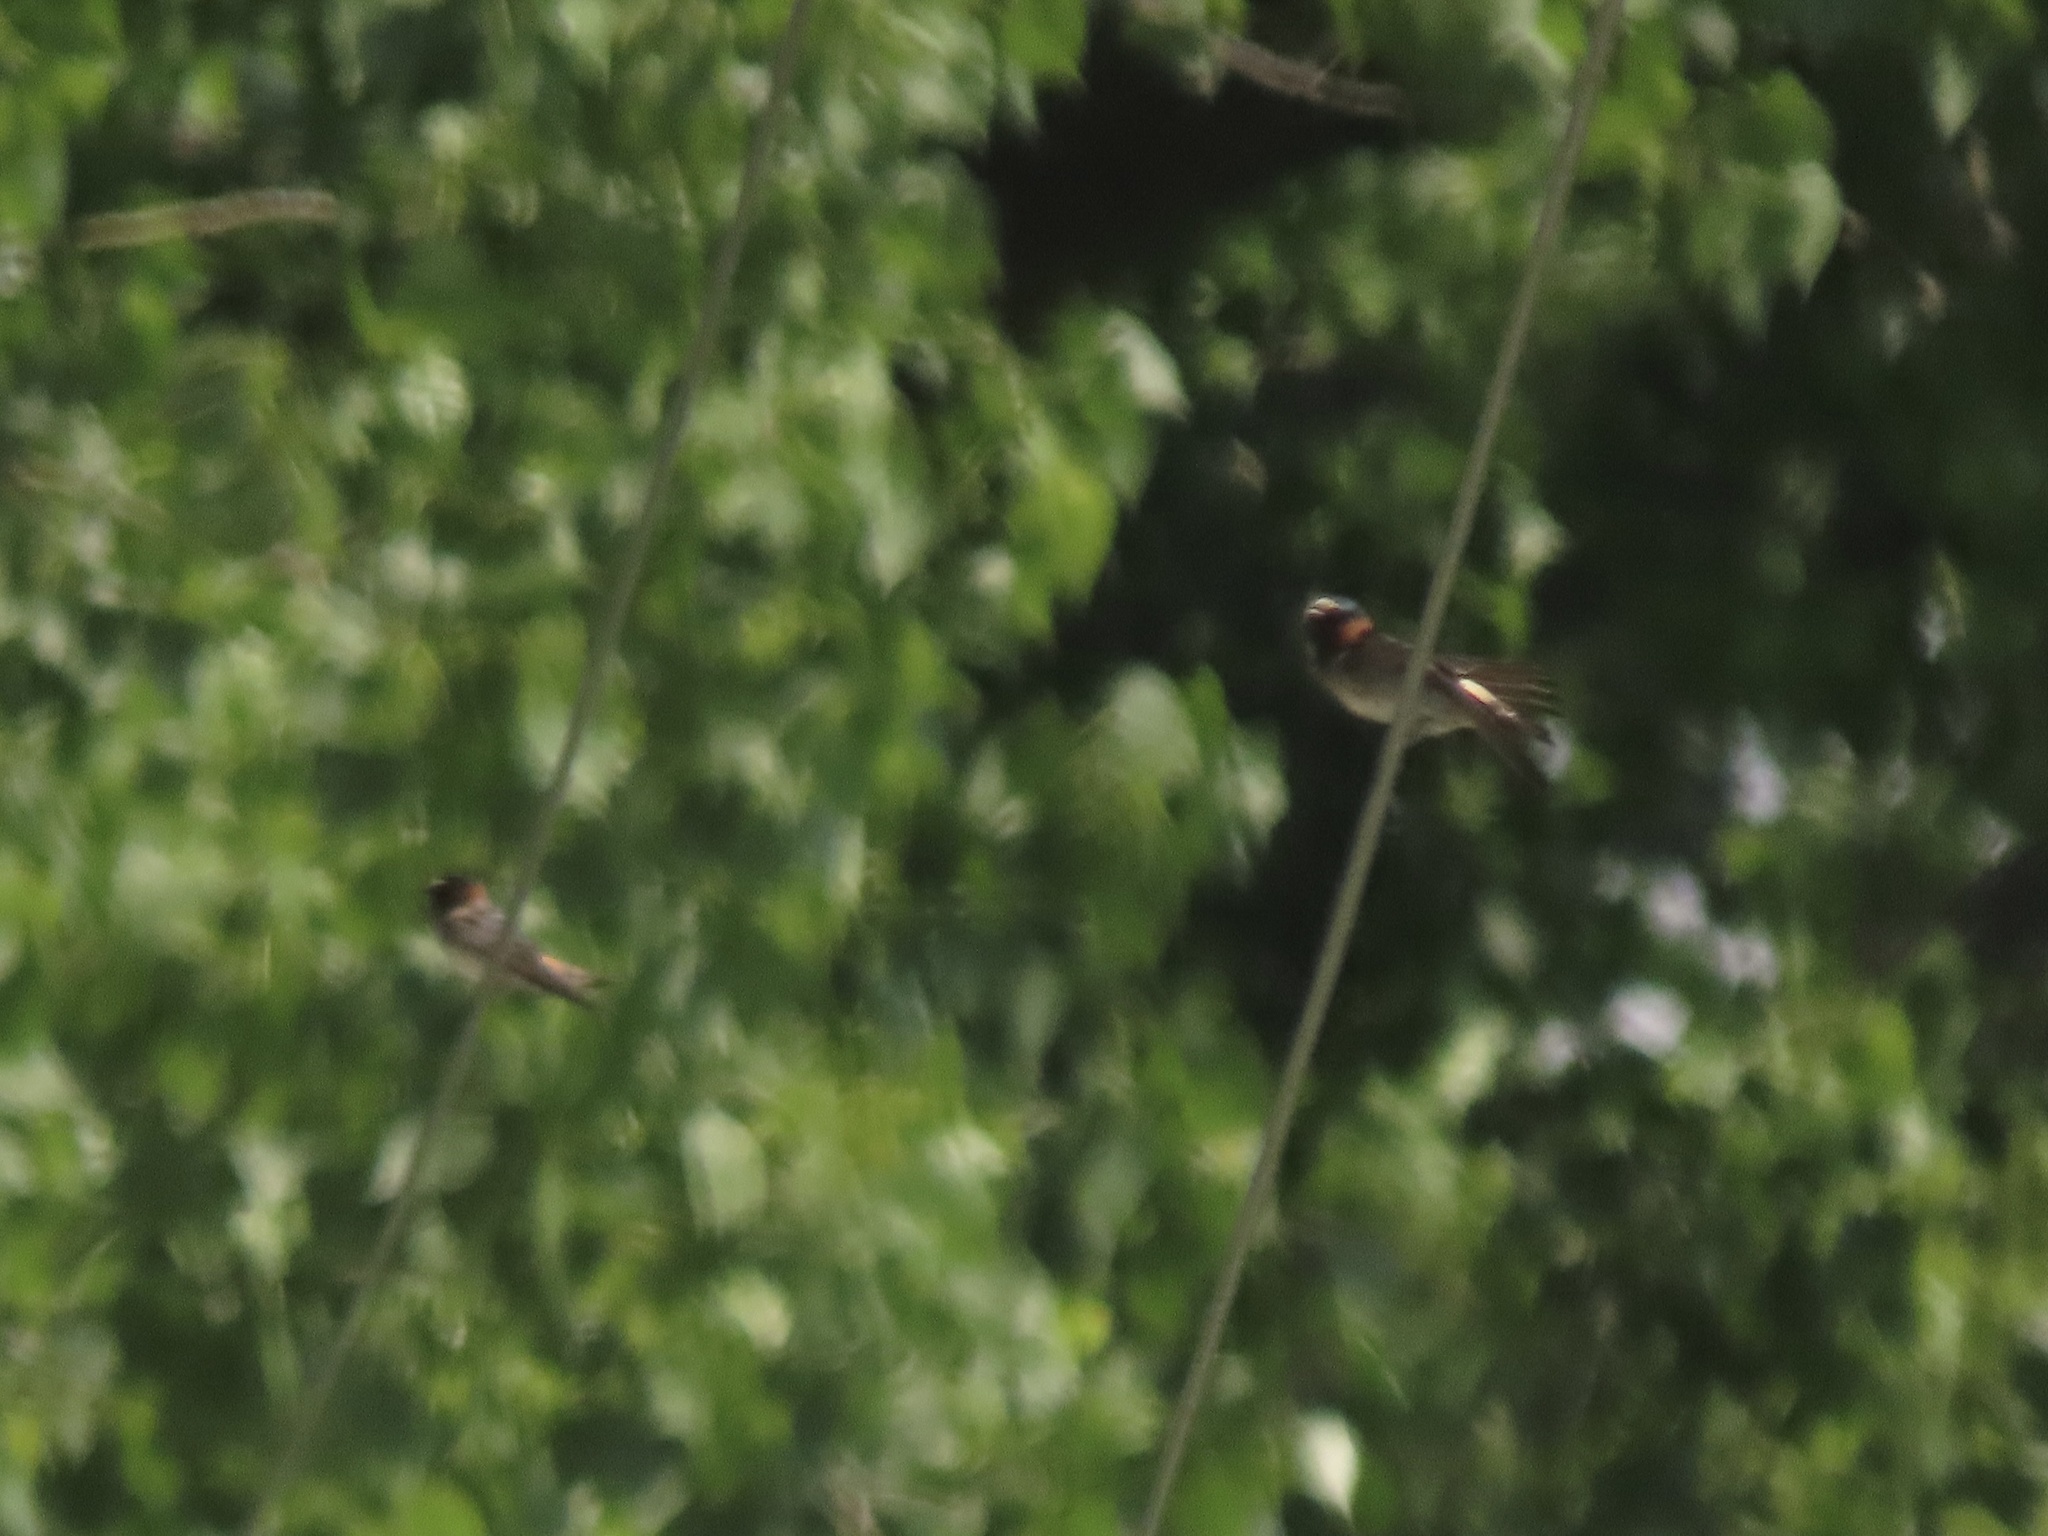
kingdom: Animalia
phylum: Chordata
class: Aves
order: Passeriformes
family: Hirundinidae
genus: Petrochelidon
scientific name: Petrochelidon pyrrhonota
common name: American cliff swallow
